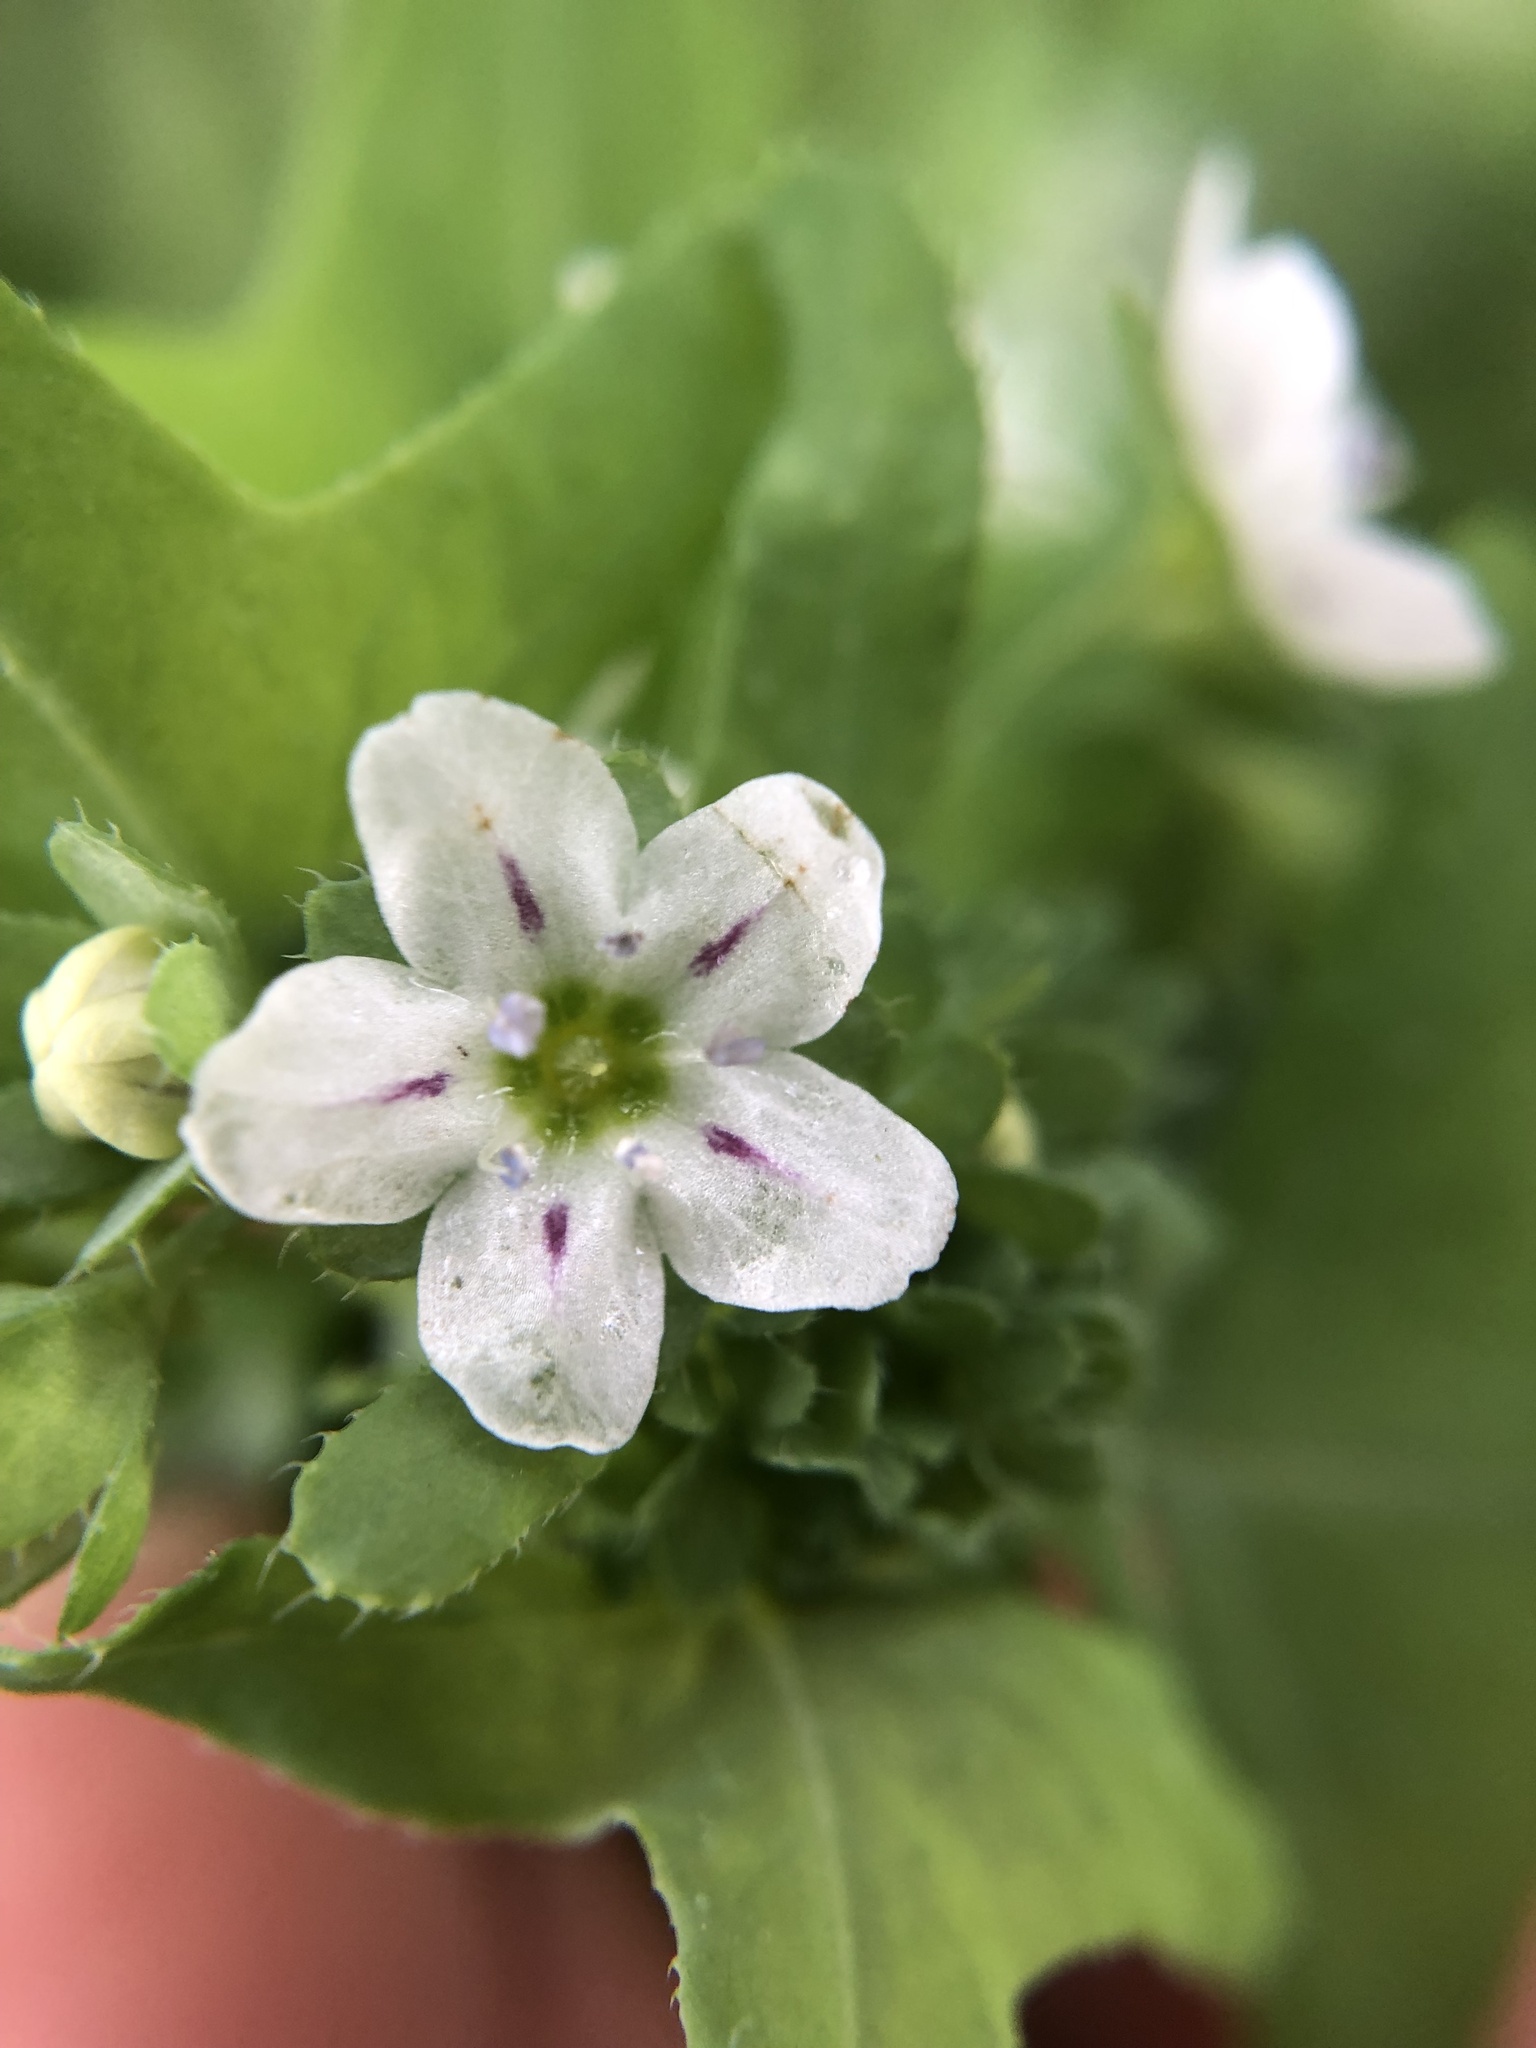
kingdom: Plantae
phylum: Tracheophyta
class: Magnoliopsida
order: Boraginales
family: Hydrophyllaceae
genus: Pholistoma
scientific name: Pholistoma membranaceum
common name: White fiesta-flower
